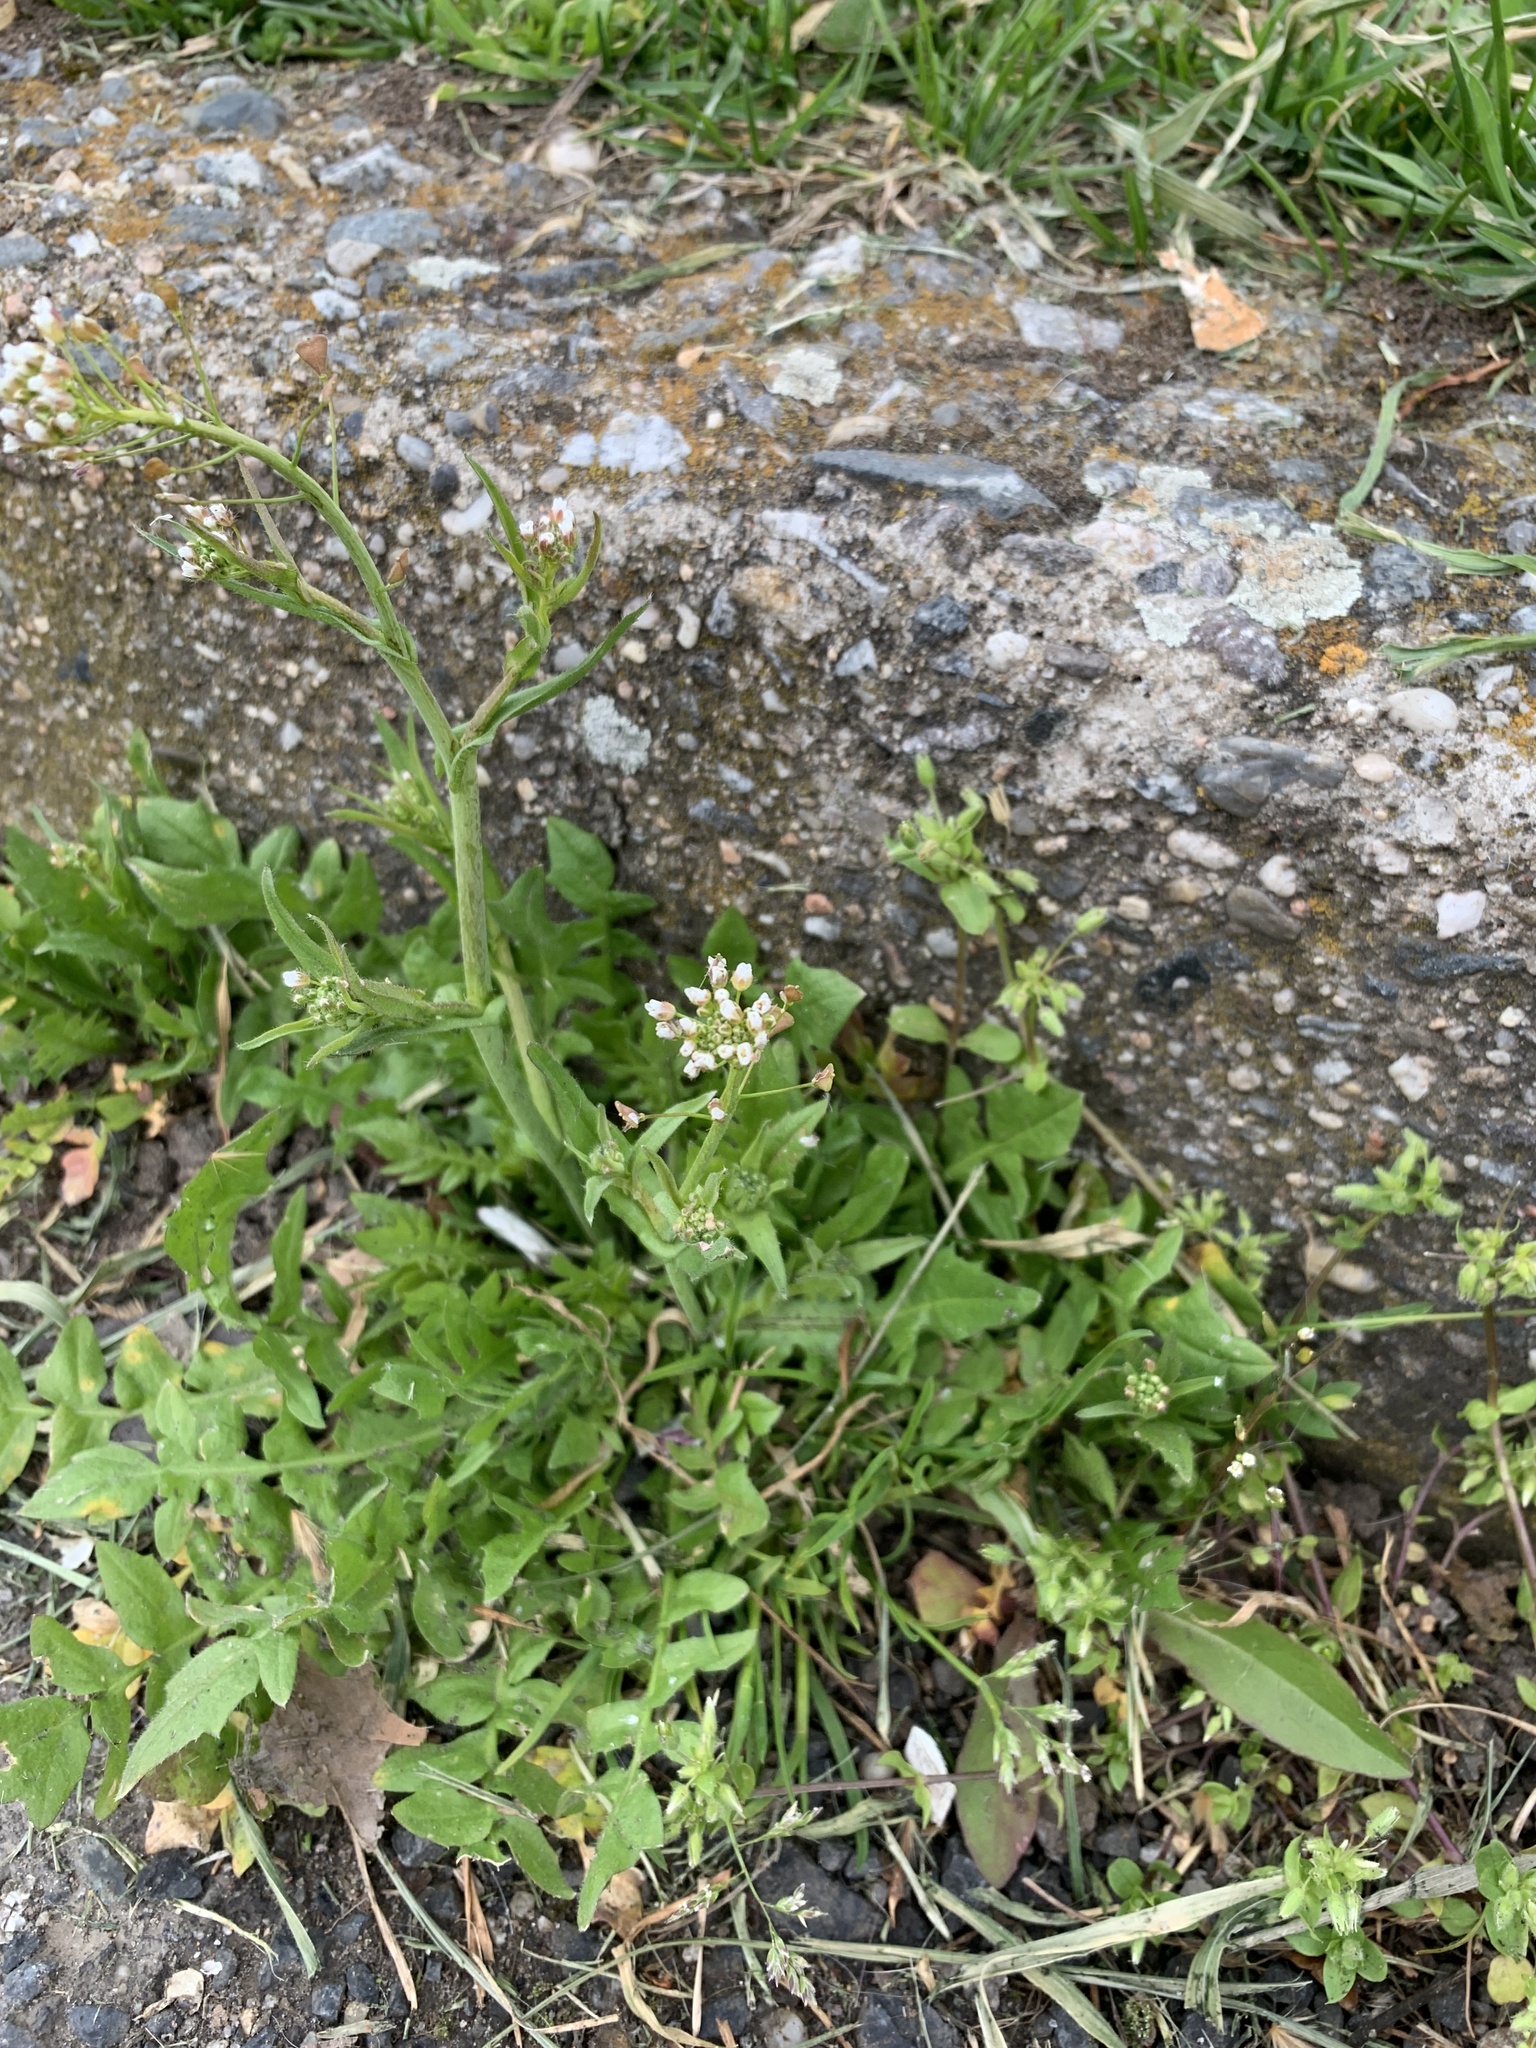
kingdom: Plantae
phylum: Tracheophyta
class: Magnoliopsida
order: Brassicales
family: Brassicaceae
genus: Capsella
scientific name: Capsella bursa-pastoris
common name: Shepherd's purse
